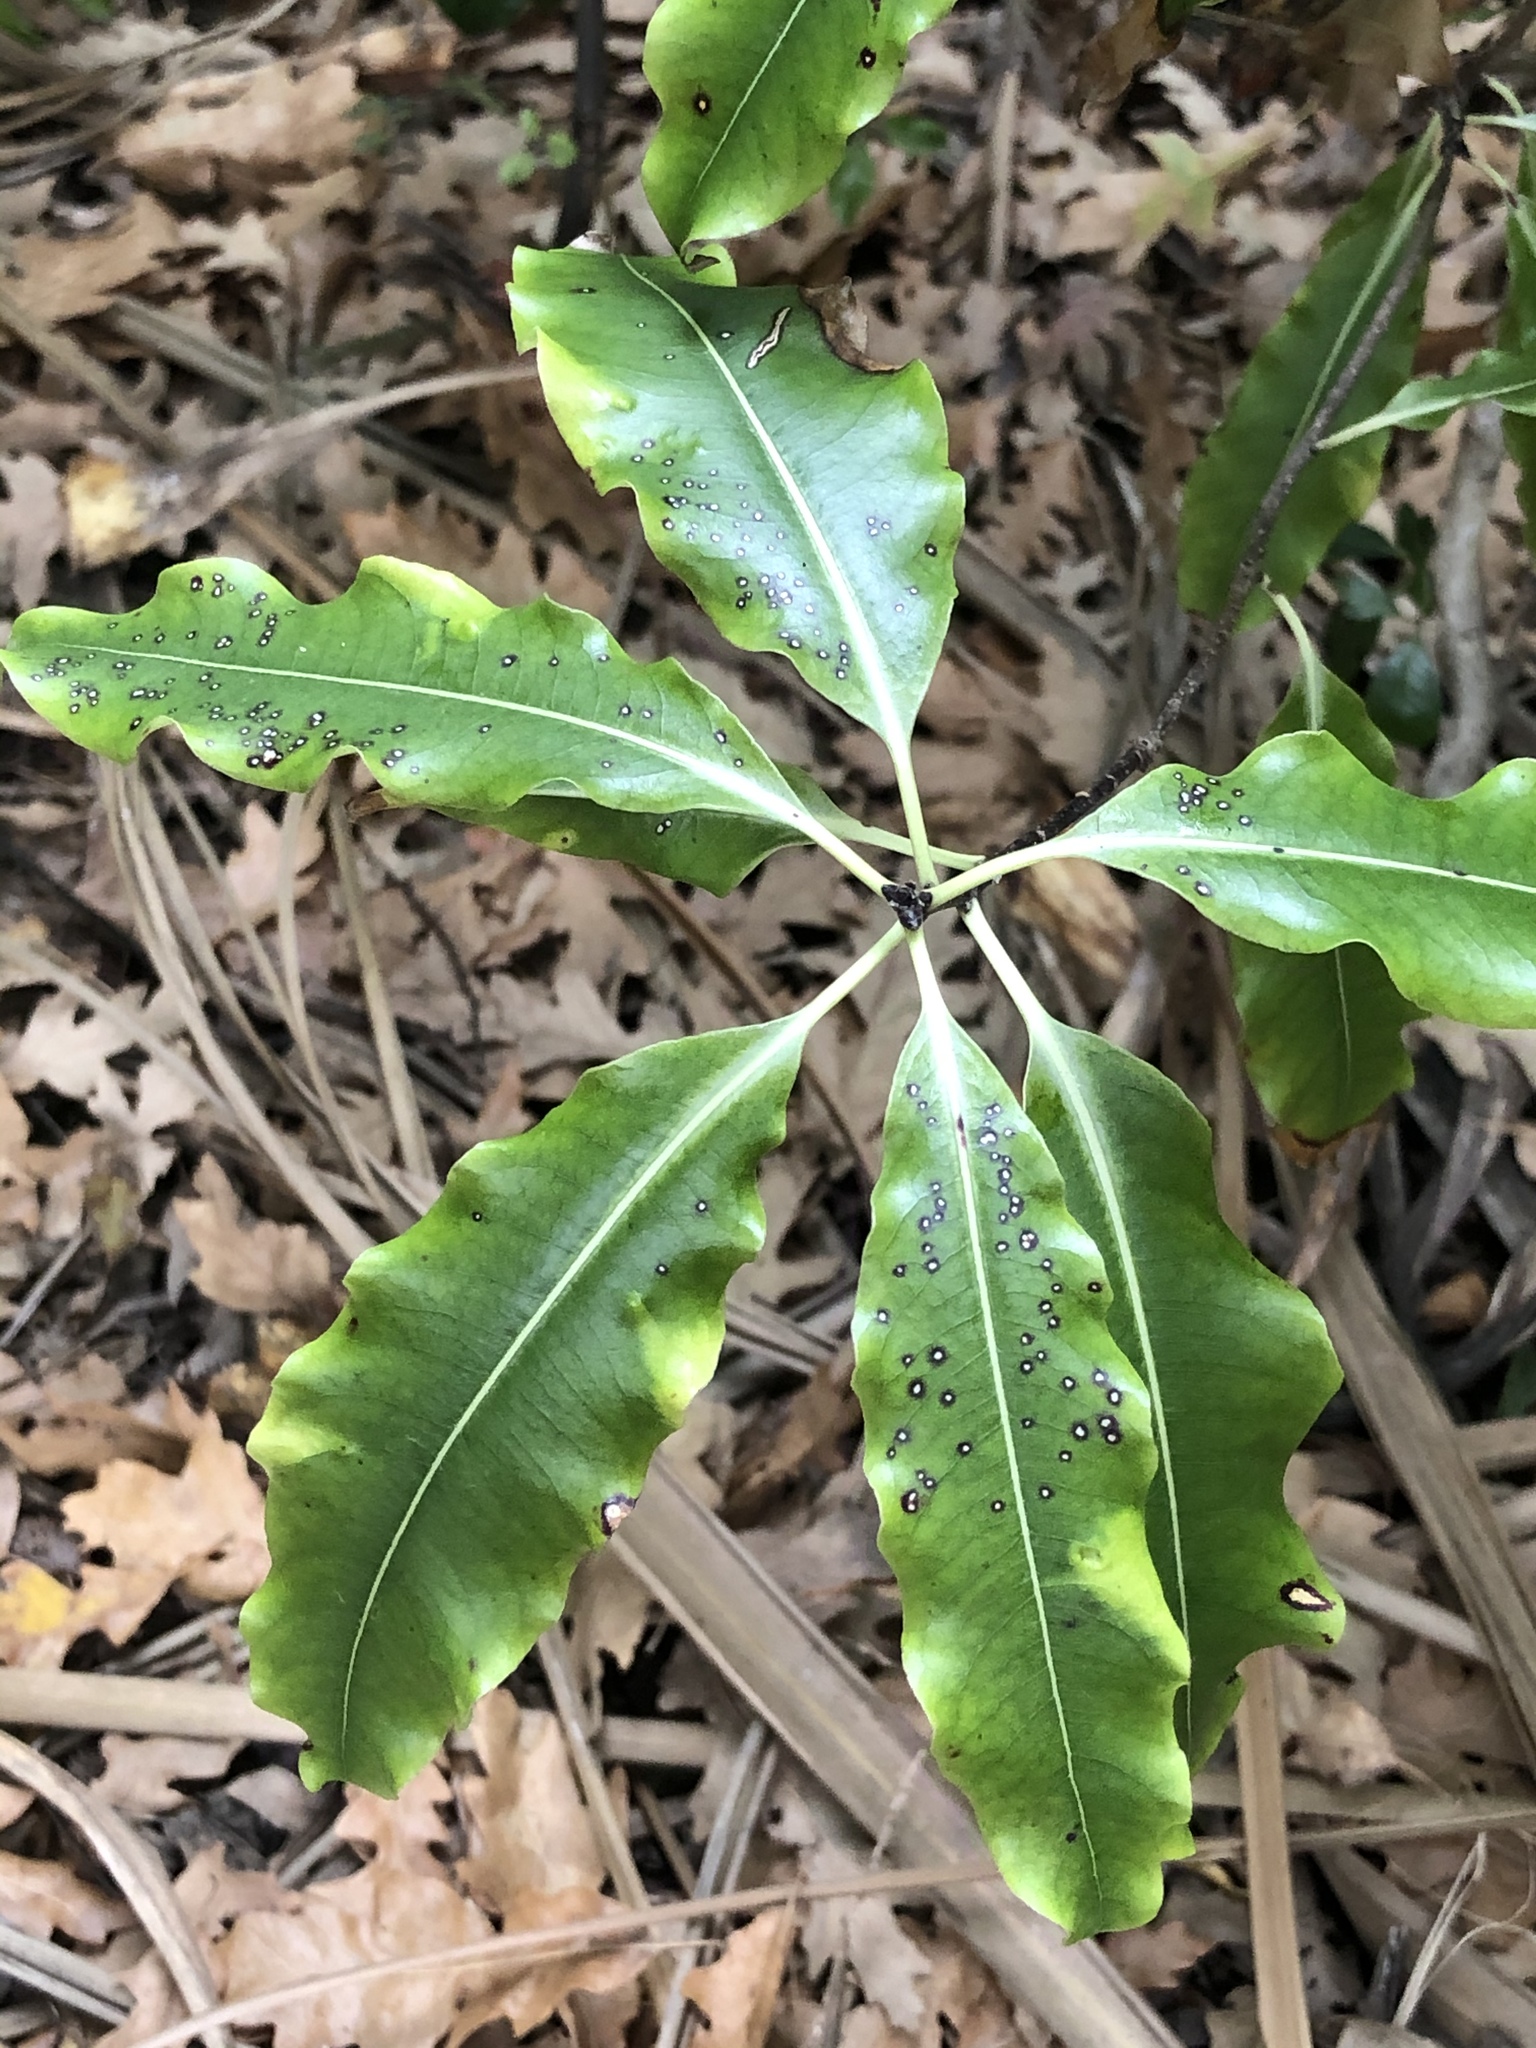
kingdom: Plantae
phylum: Tracheophyta
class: Magnoliopsida
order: Apiales
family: Pittosporaceae
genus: Pittosporum
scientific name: Pittosporum eugenioides
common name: Lemonwood
